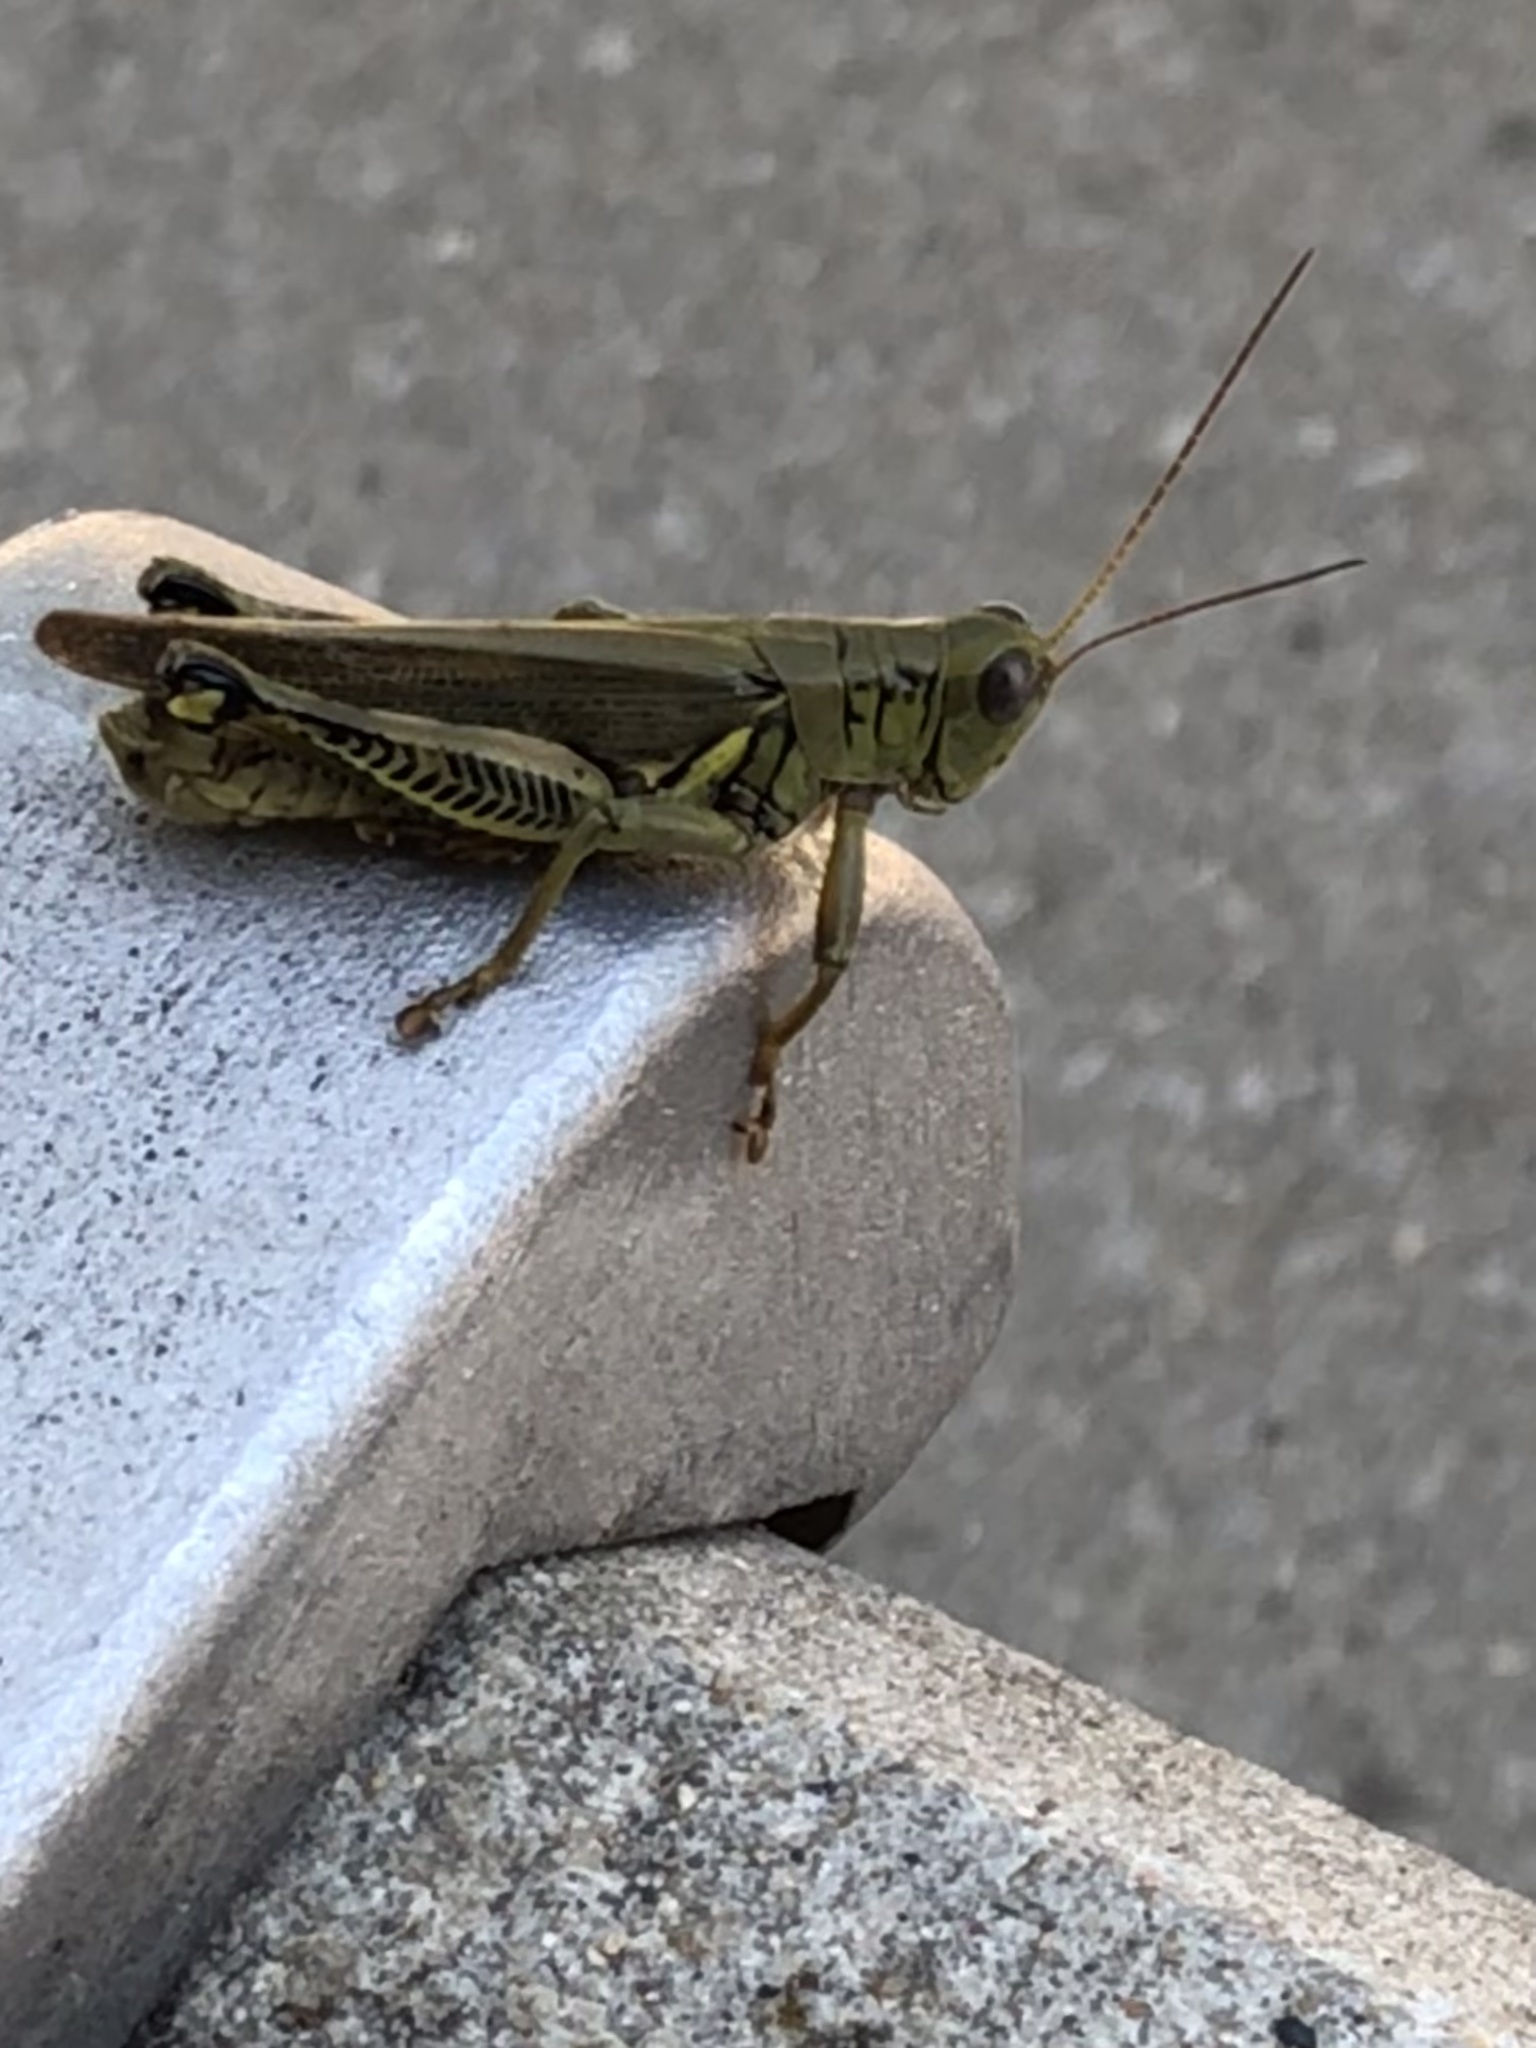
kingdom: Animalia
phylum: Arthropoda
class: Insecta
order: Orthoptera
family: Acrididae
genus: Melanoplus
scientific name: Melanoplus differentialis
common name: Differential grasshopper
